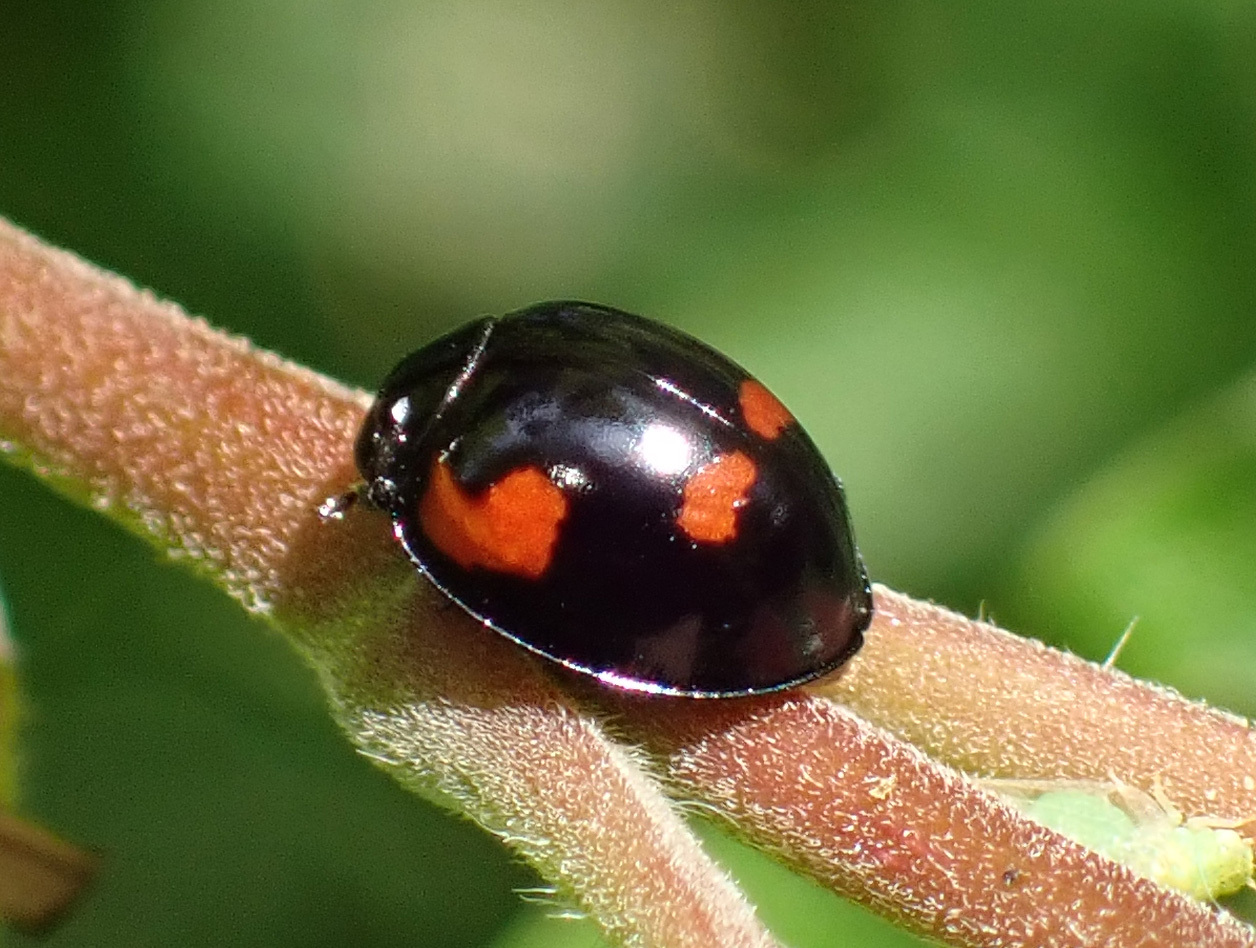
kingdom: Animalia
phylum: Arthropoda
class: Insecta
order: Coleoptera
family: Coccinellidae
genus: Brumus
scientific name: Brumus quadripustulatus
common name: Ladybird beetle
